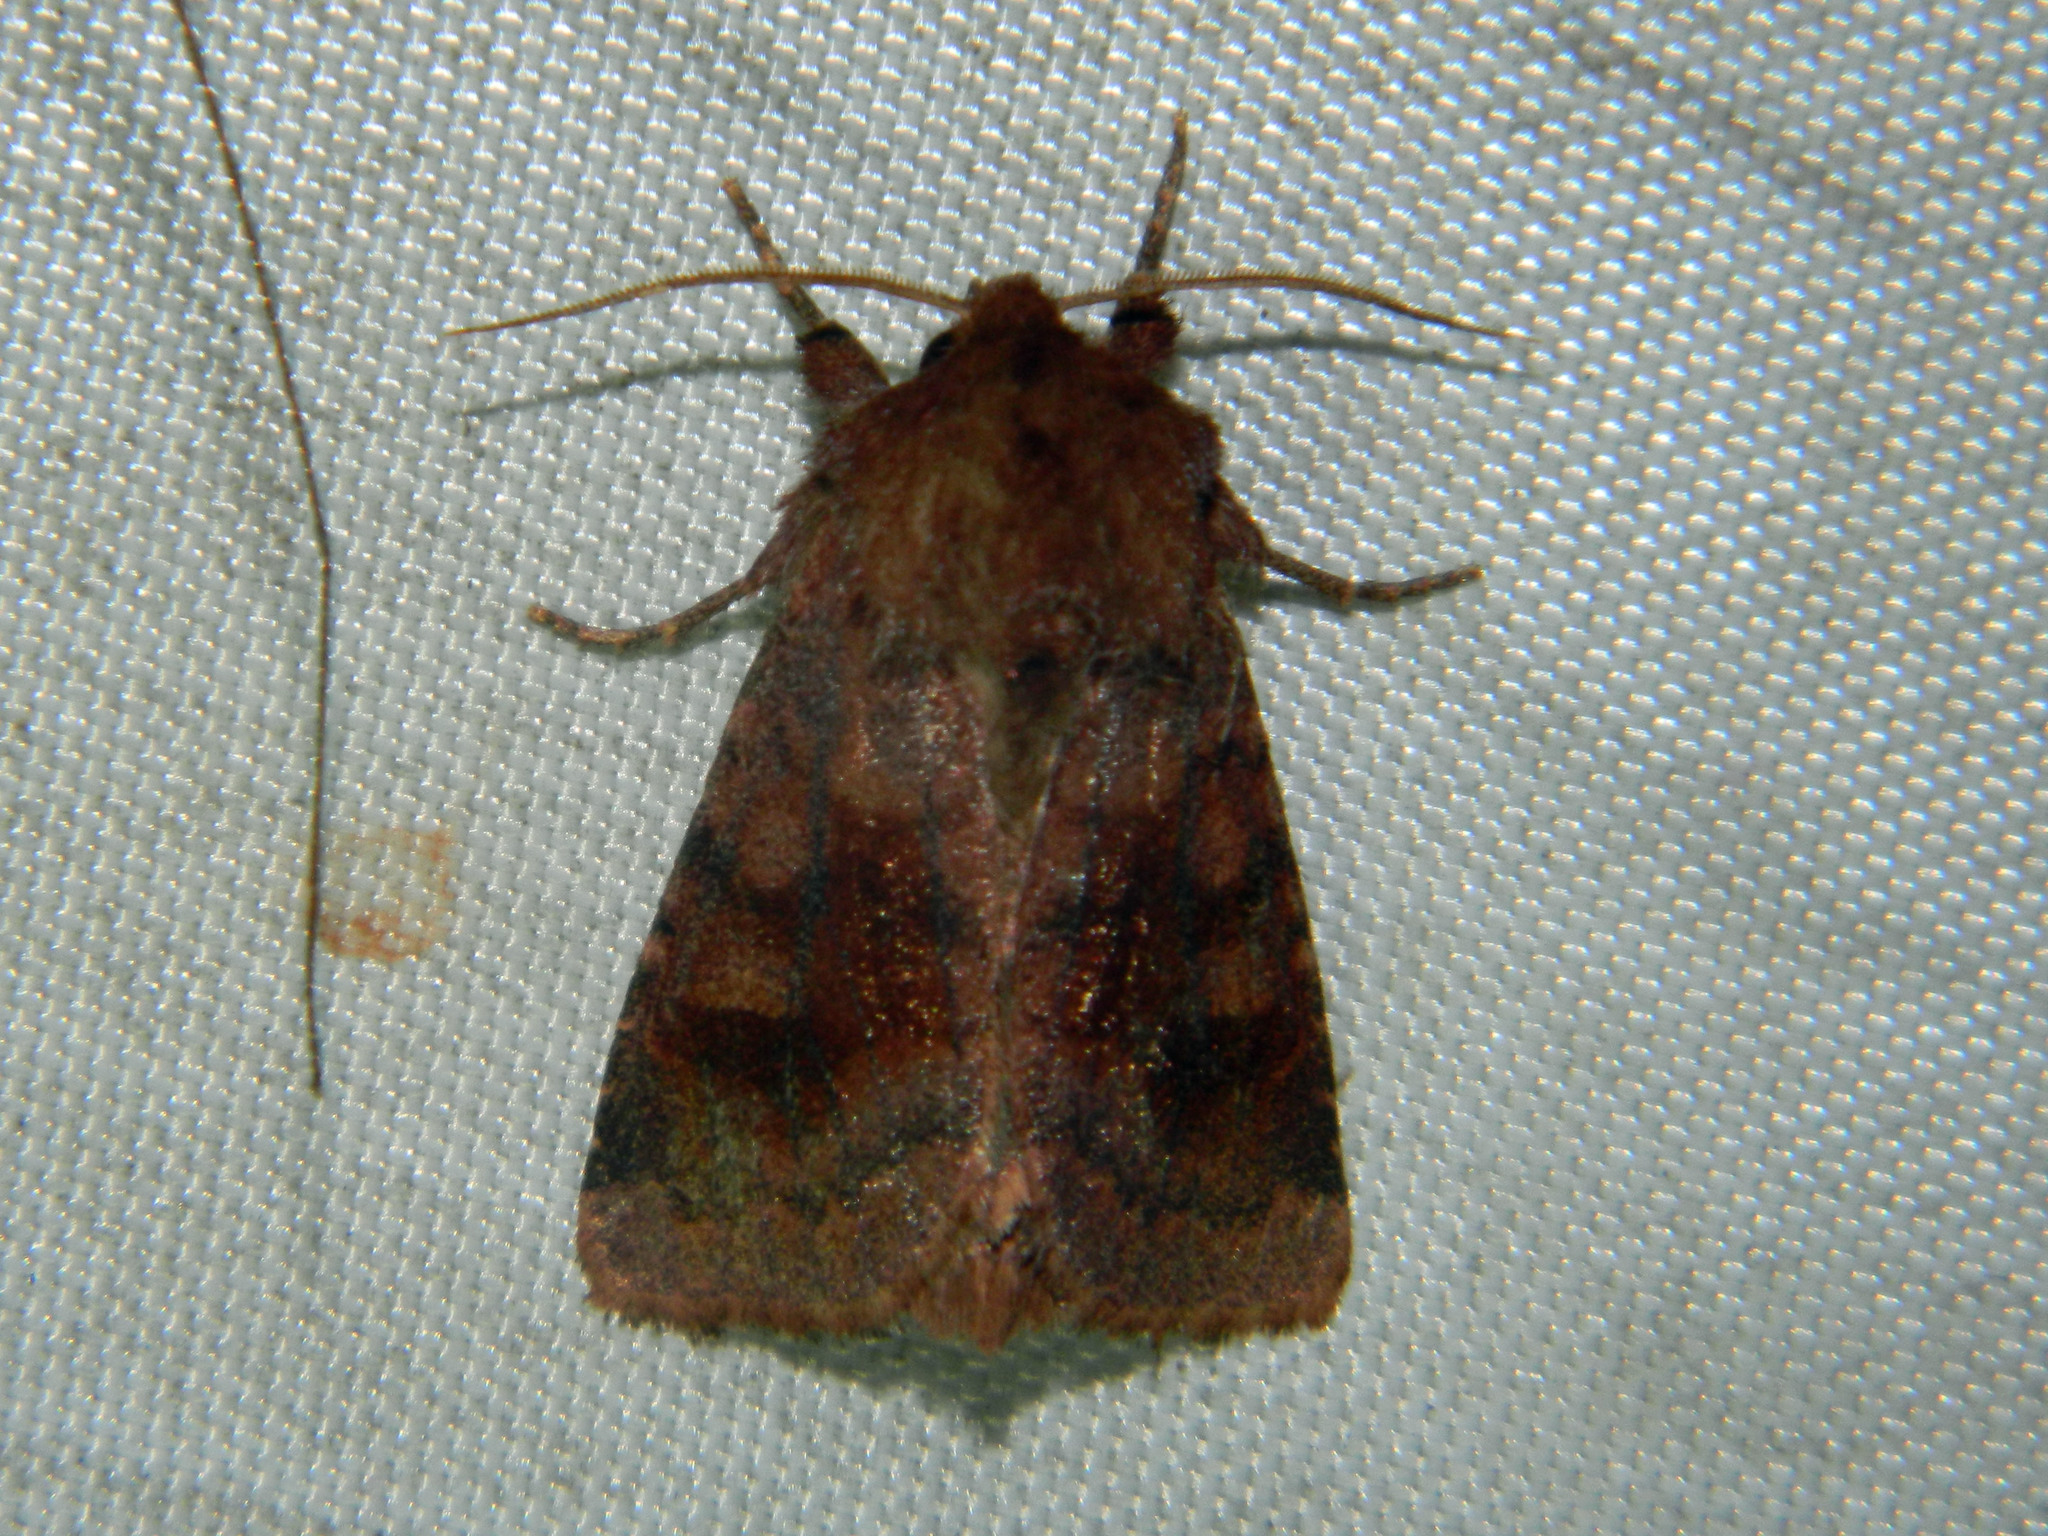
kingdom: Animalia
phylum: Arthropoda
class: Insecta
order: Lepidoptera
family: Noctuidae
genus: Nephelodes
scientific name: Nephelodes minians
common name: Bronzed cutworm
